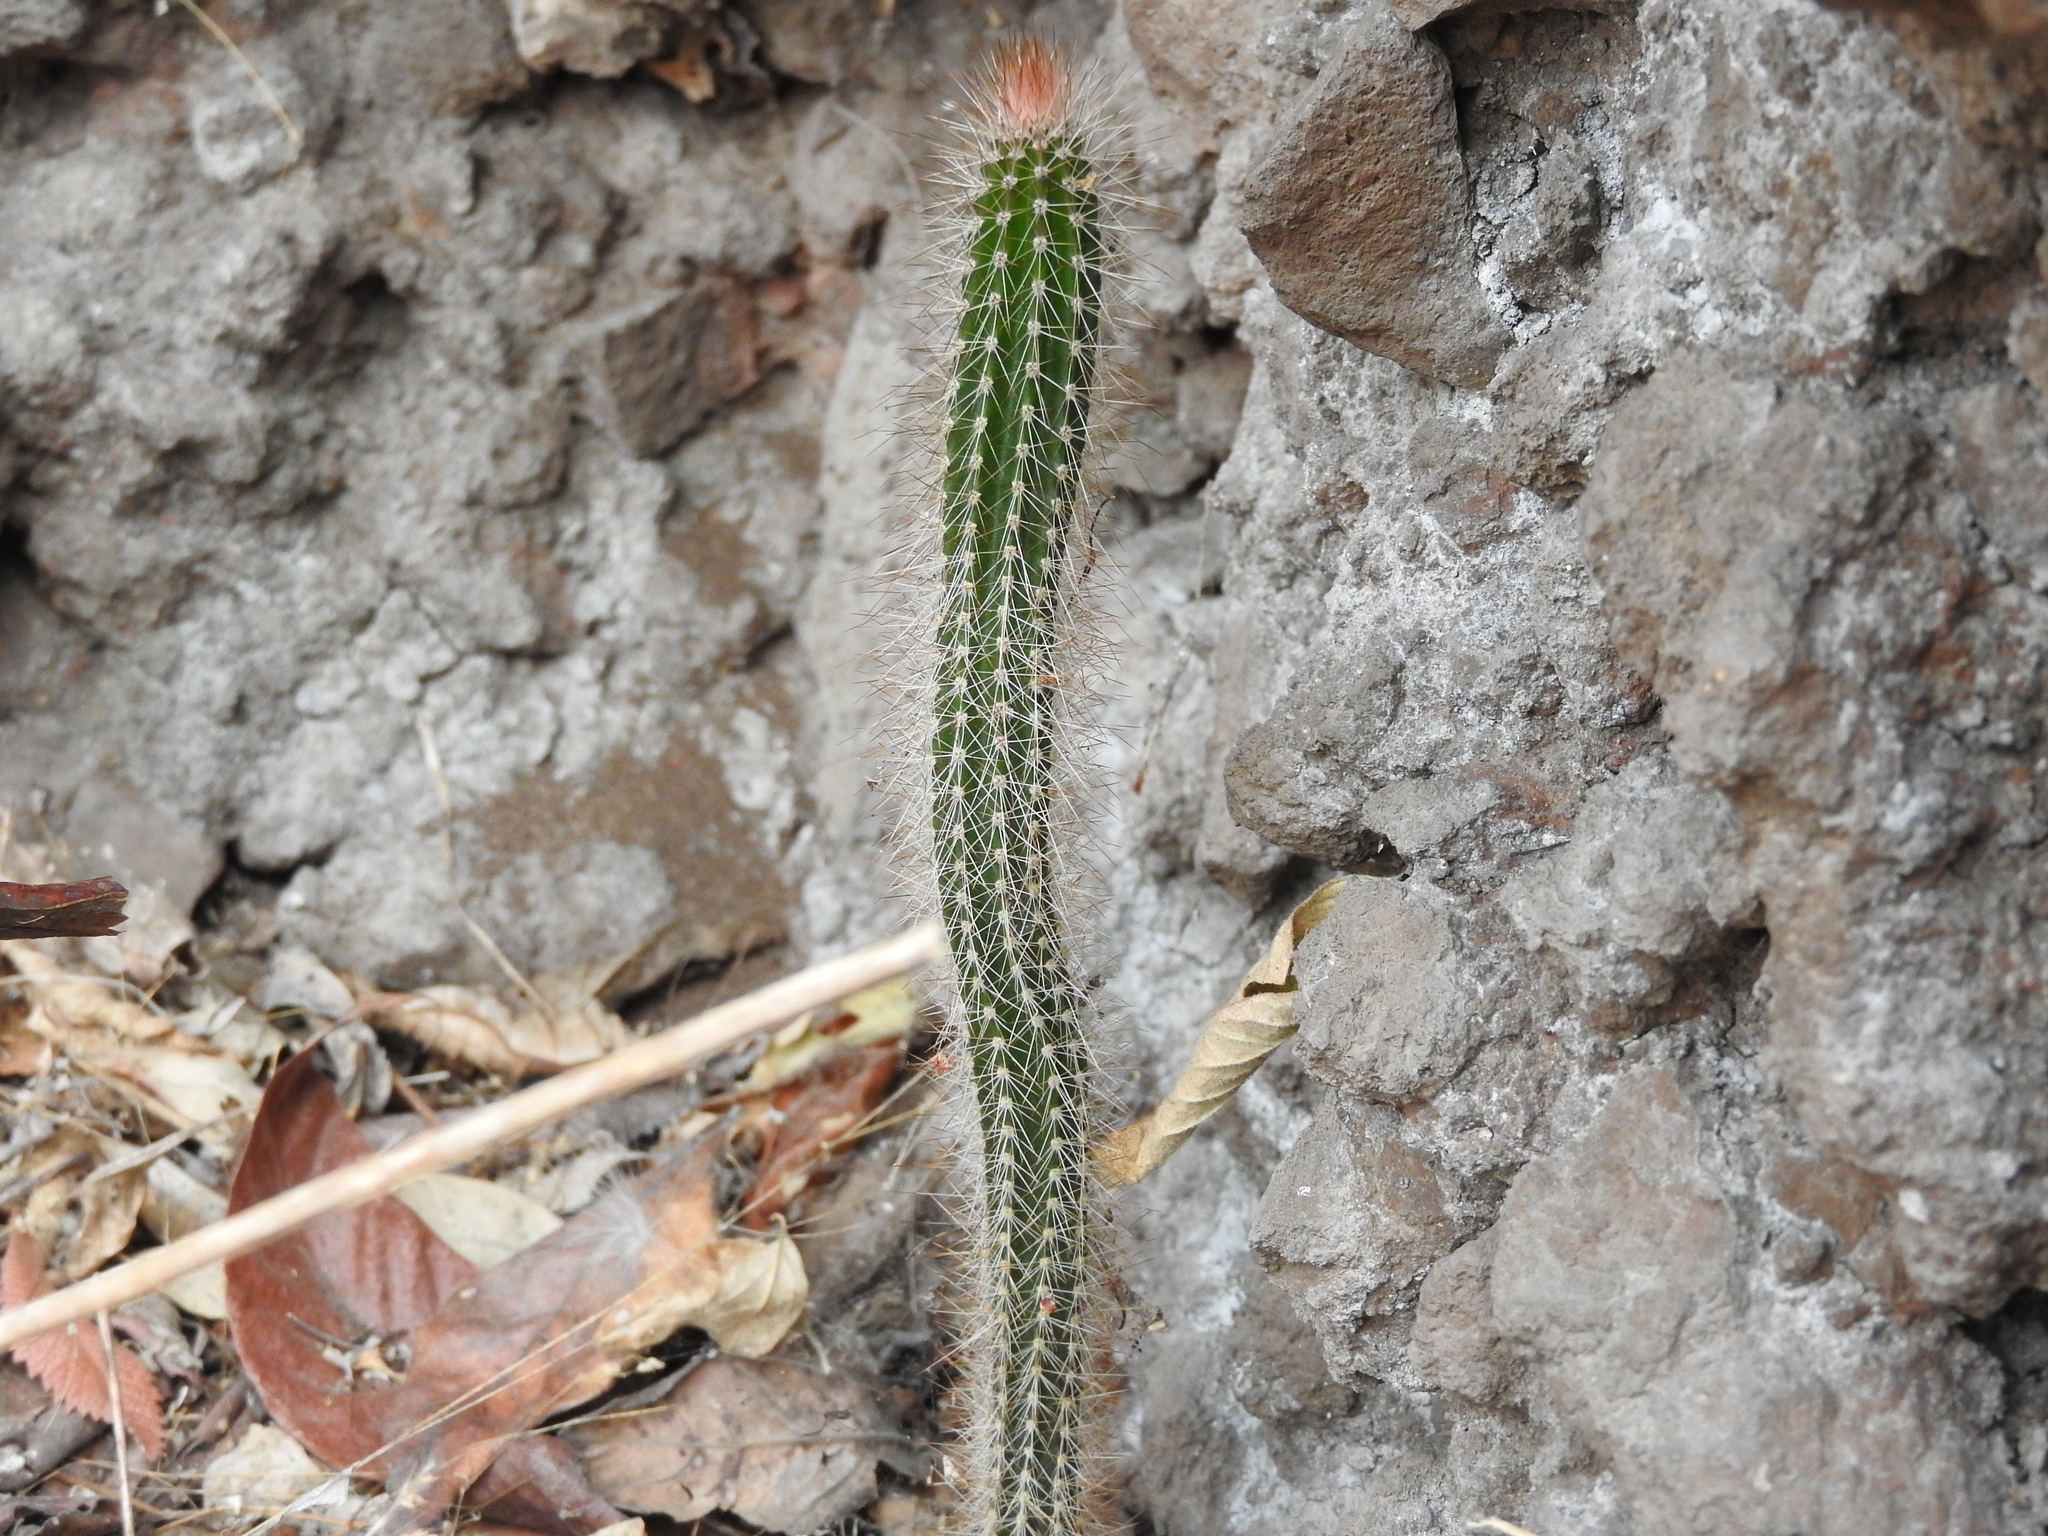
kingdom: Plantae
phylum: Tracheophyta
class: Magnoliopsida
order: Caryophyllales
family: Cactaceae
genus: Peniocereus
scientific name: Peniocereus serpentinus
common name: Serpent cactus
